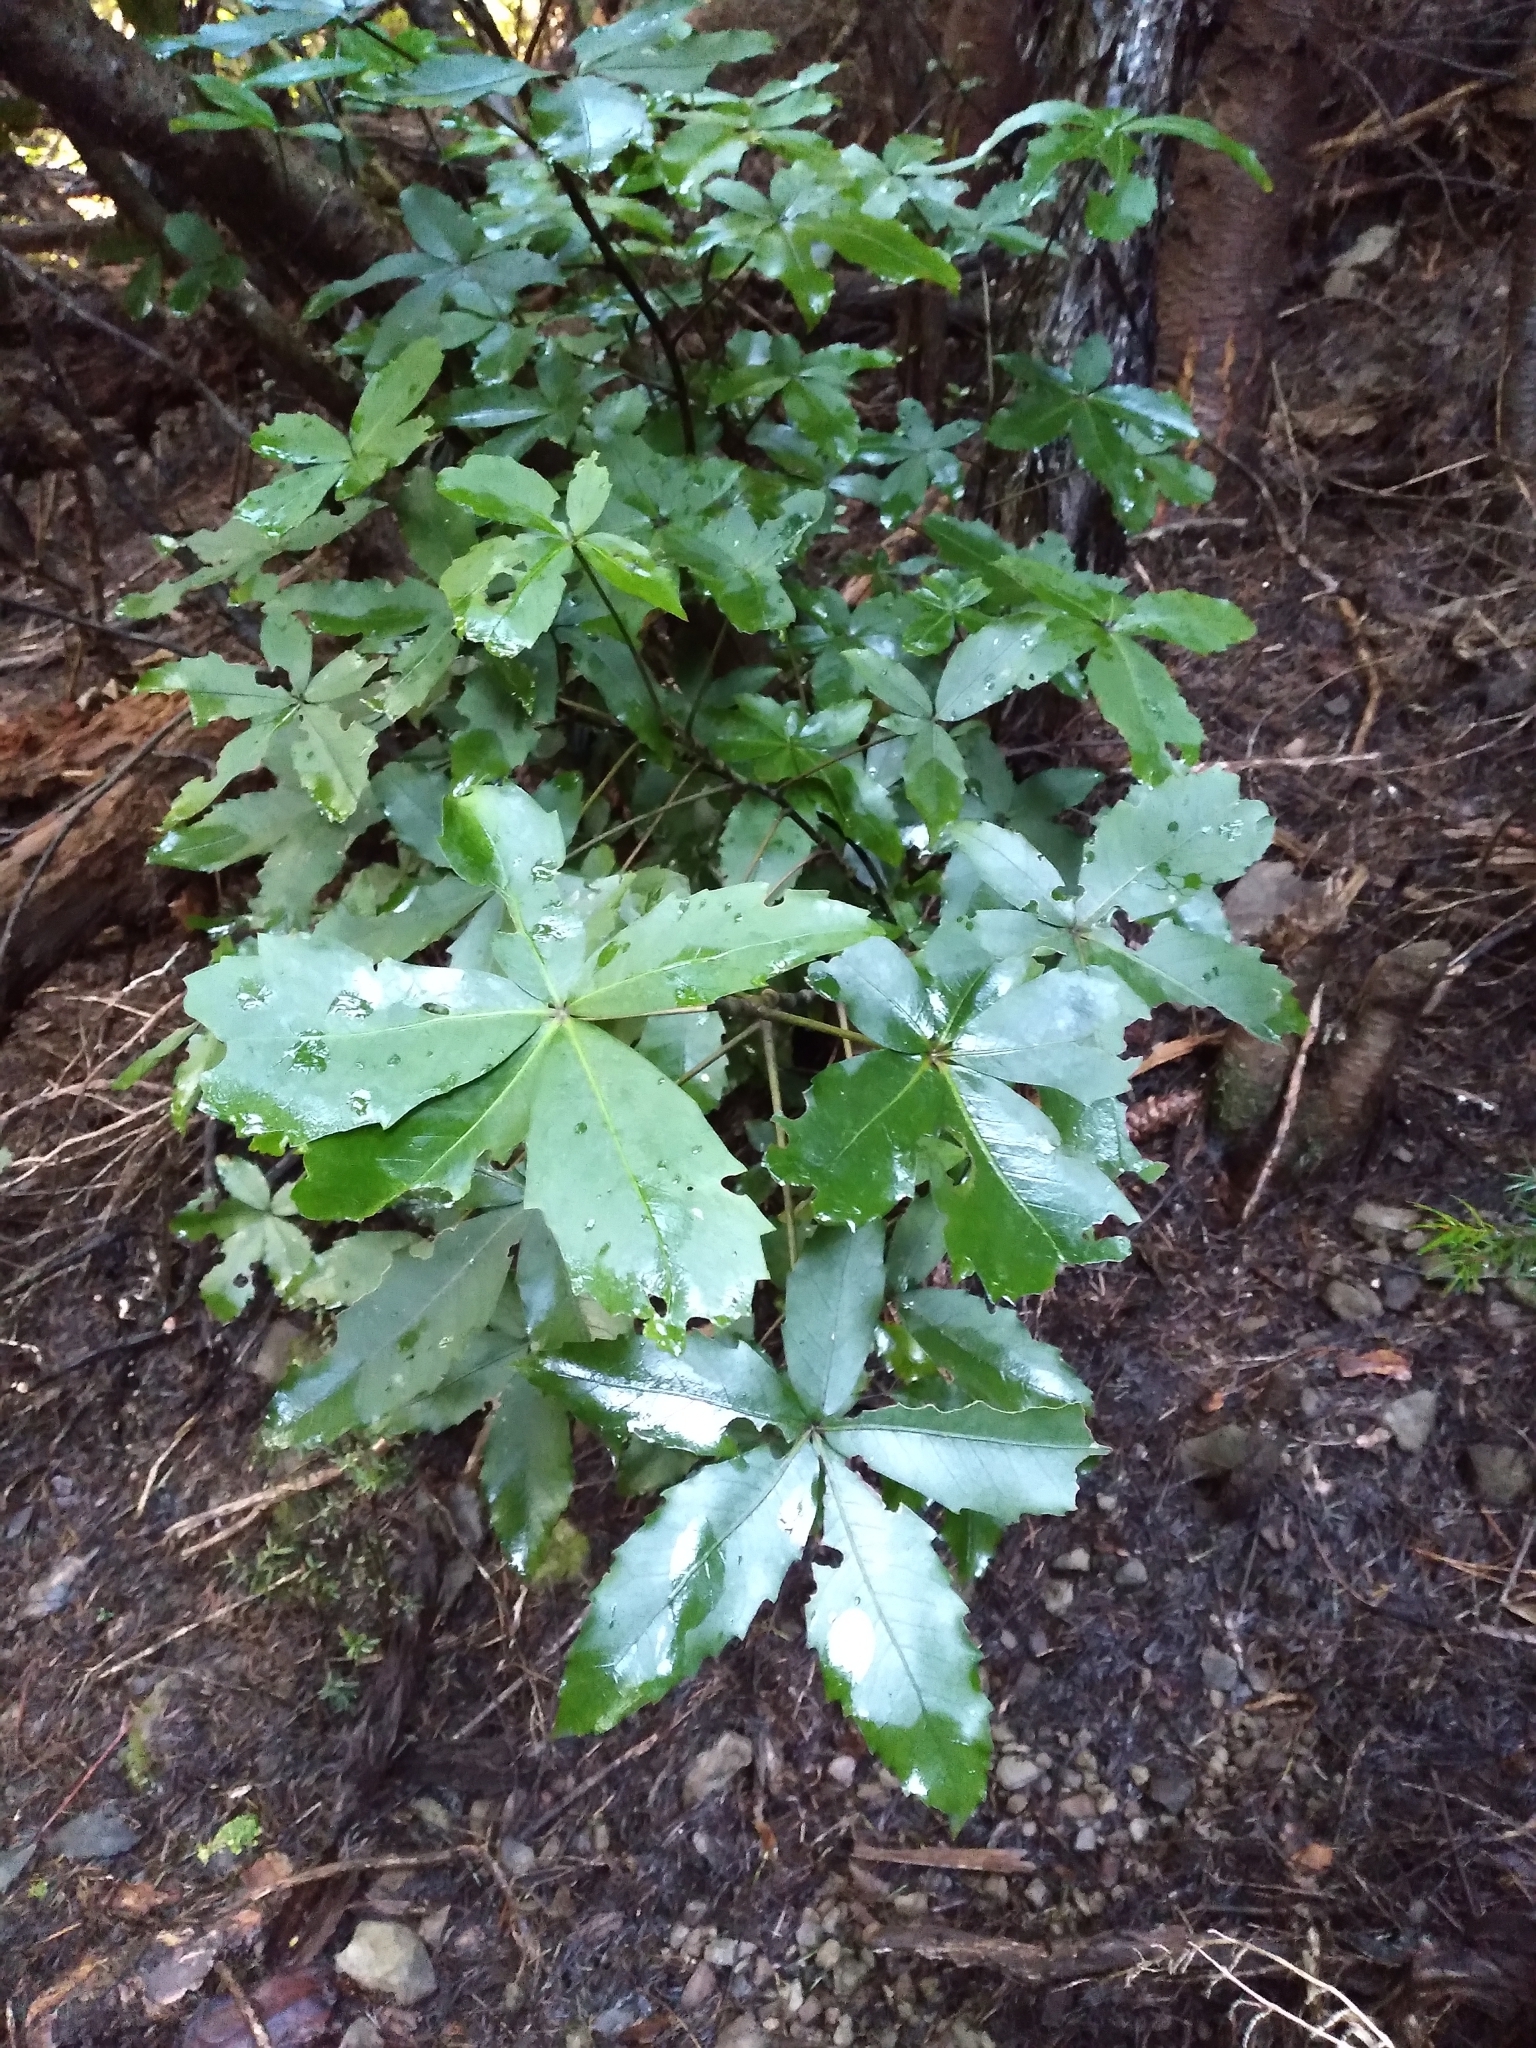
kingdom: Plantae
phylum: Tracheophyta
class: Magnoliopsida
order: Apiales
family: Araliaceae
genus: Neopanax
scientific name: Neopanax colensoi
